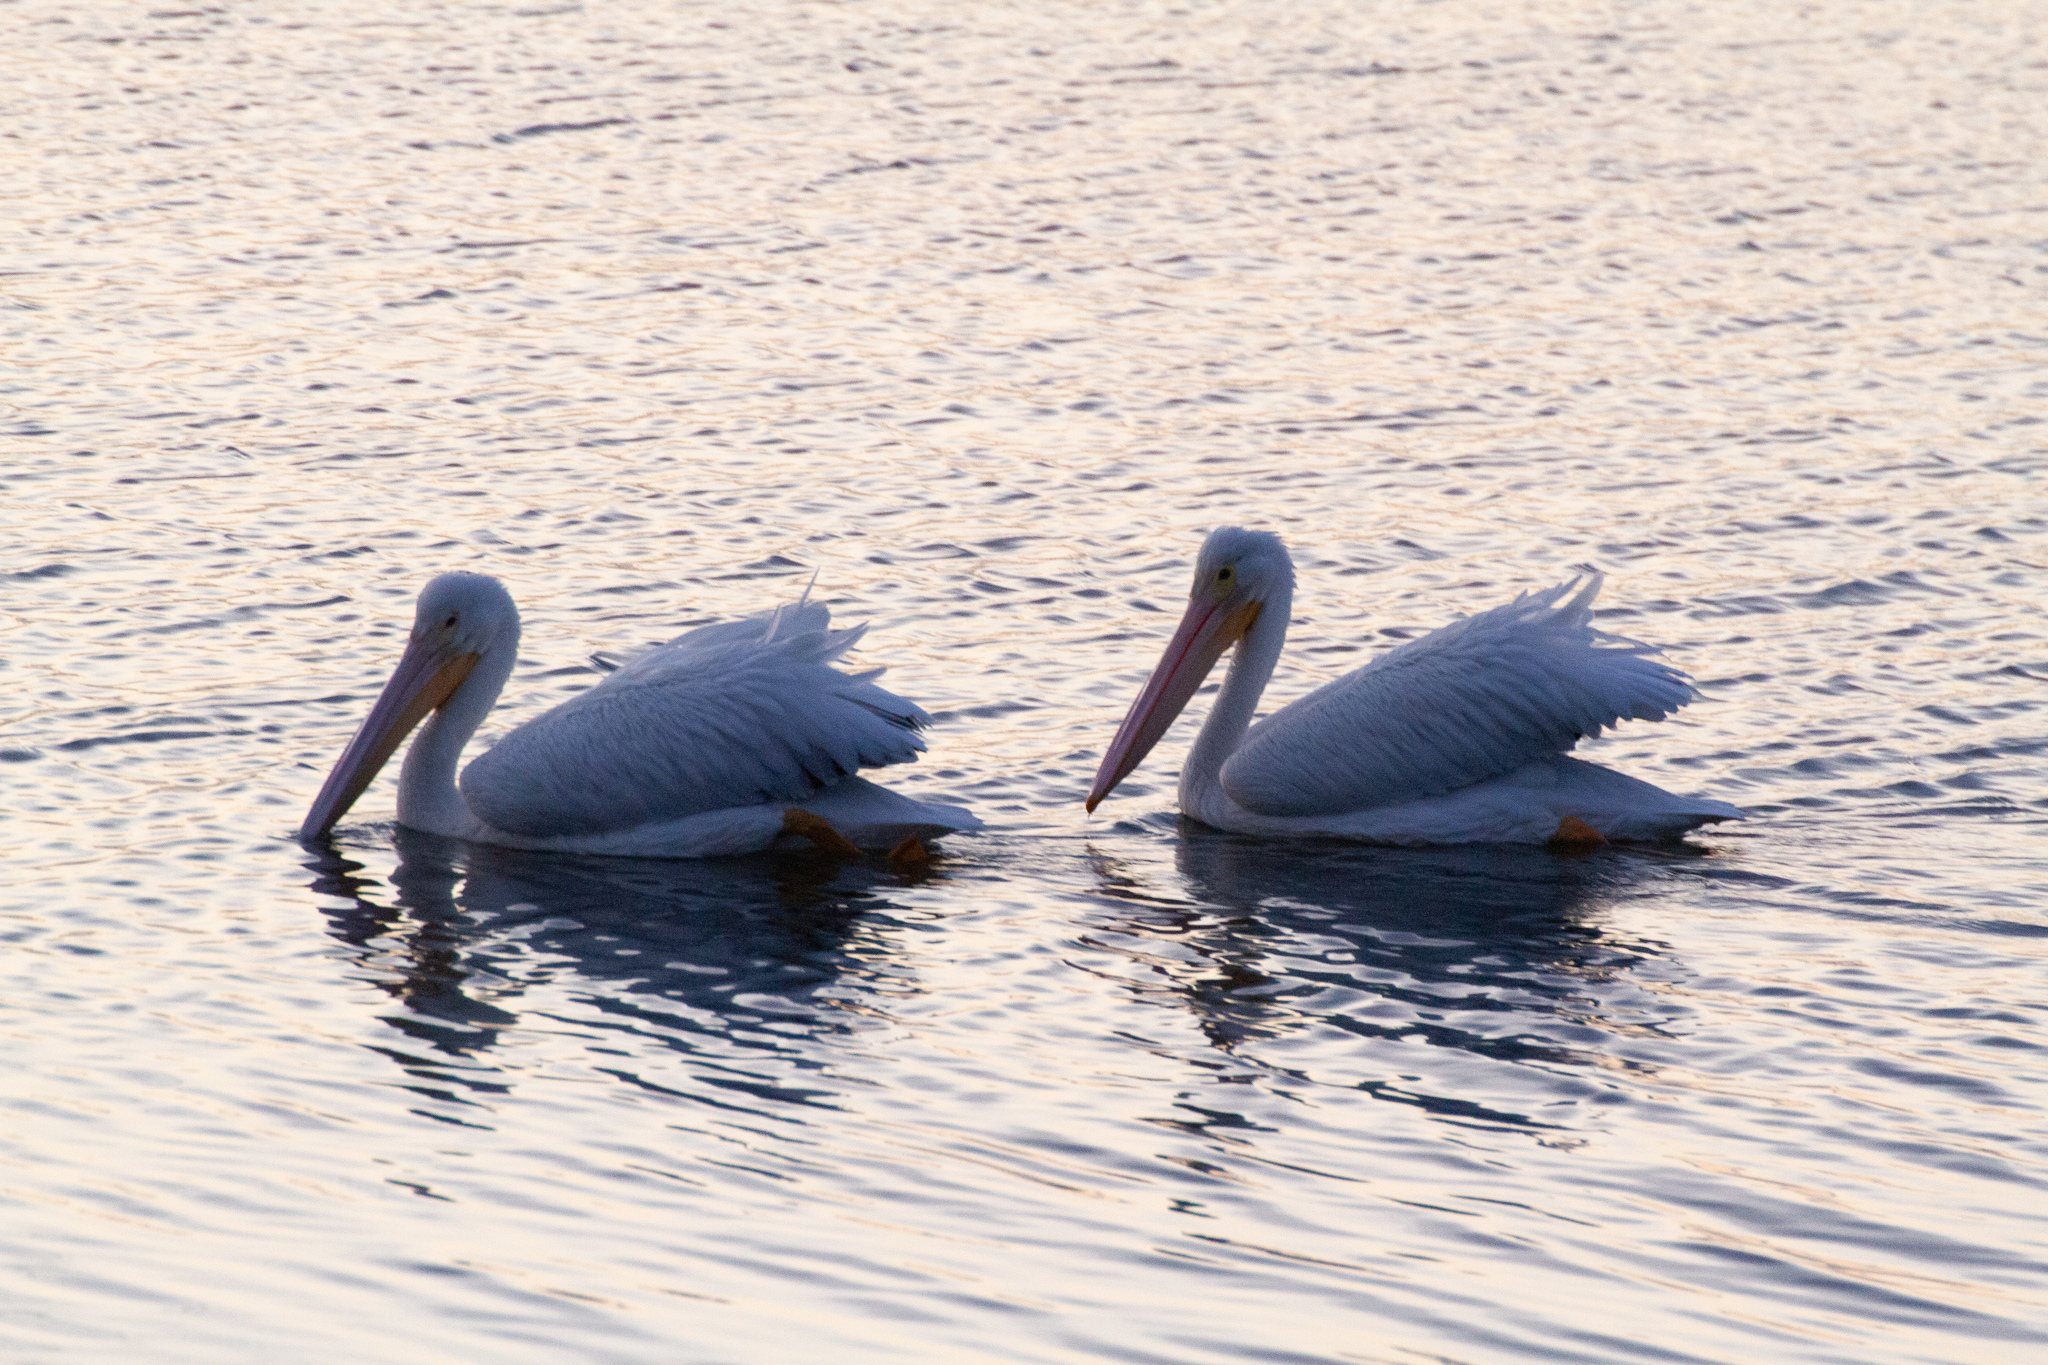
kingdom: Animalia
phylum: Chordata
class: Aves
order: Pelecaniformes
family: Pelecanidae
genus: Pelecanus
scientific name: Pelecanus erythrorhynchos
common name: American white pelican
